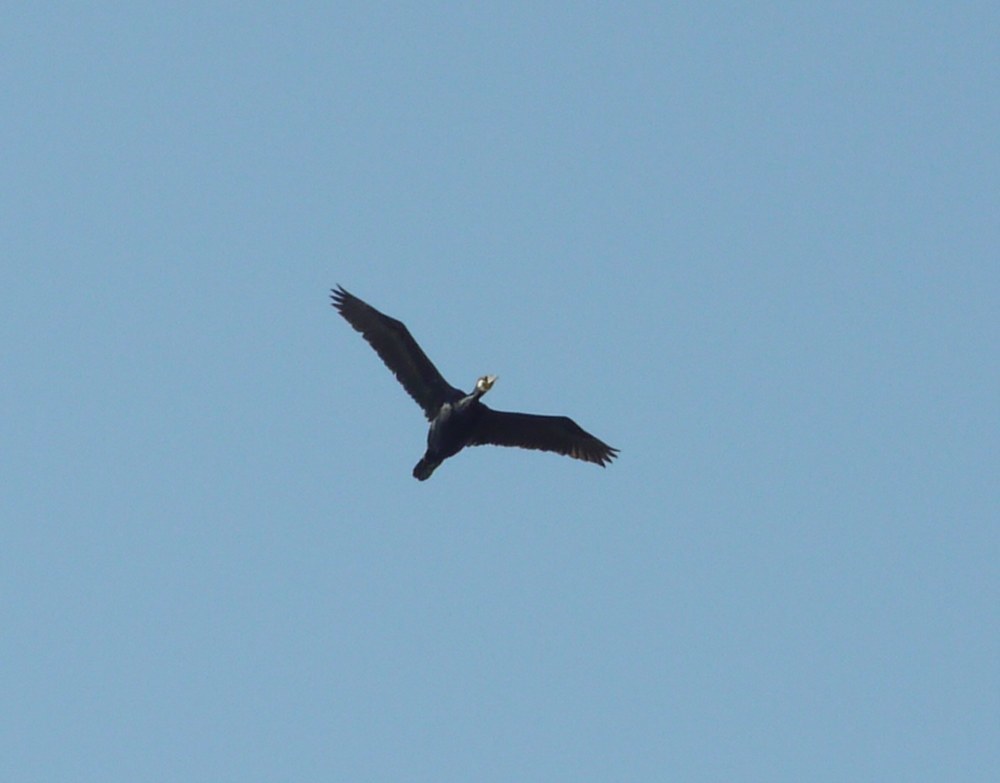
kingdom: Animalia
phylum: Chordata
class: Aves
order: Suliformes
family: Phalacrocoracidae
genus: Phalacrocorax
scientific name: Phalacrocorax carbo
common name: Great cormorant
